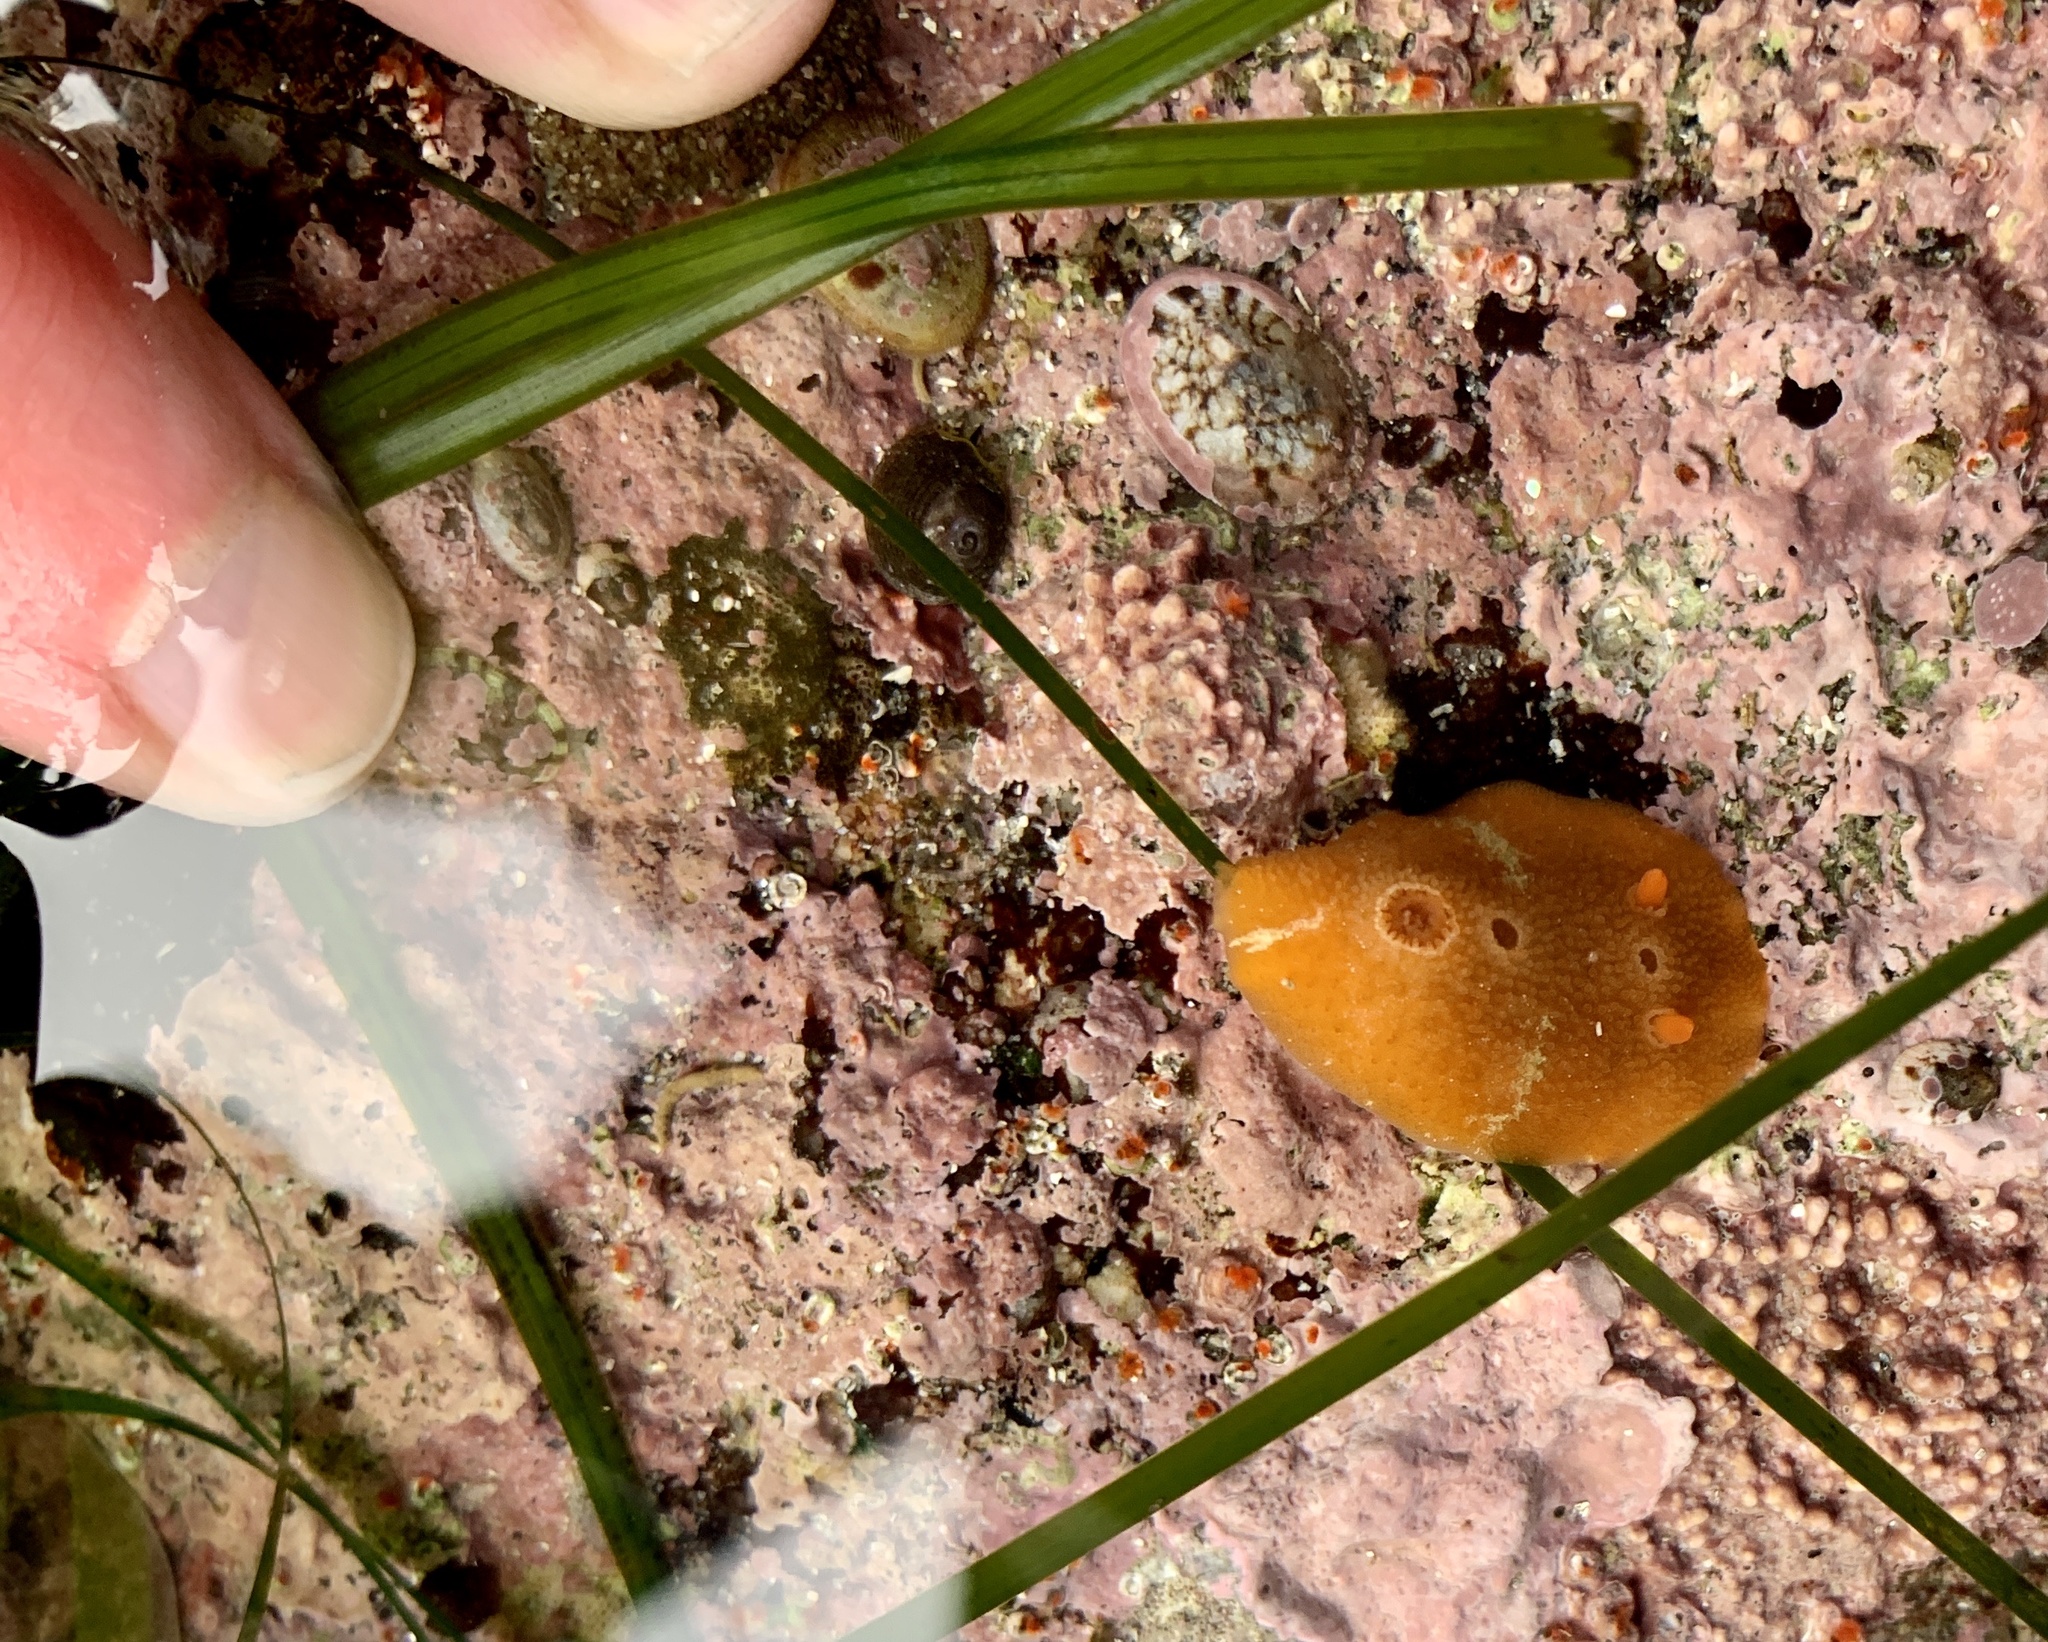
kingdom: Animalia
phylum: Mollusca
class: Gastropoda
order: Nudibranchia
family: Cadlinidae
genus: Aldisa
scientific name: Aldisa sanguinea
